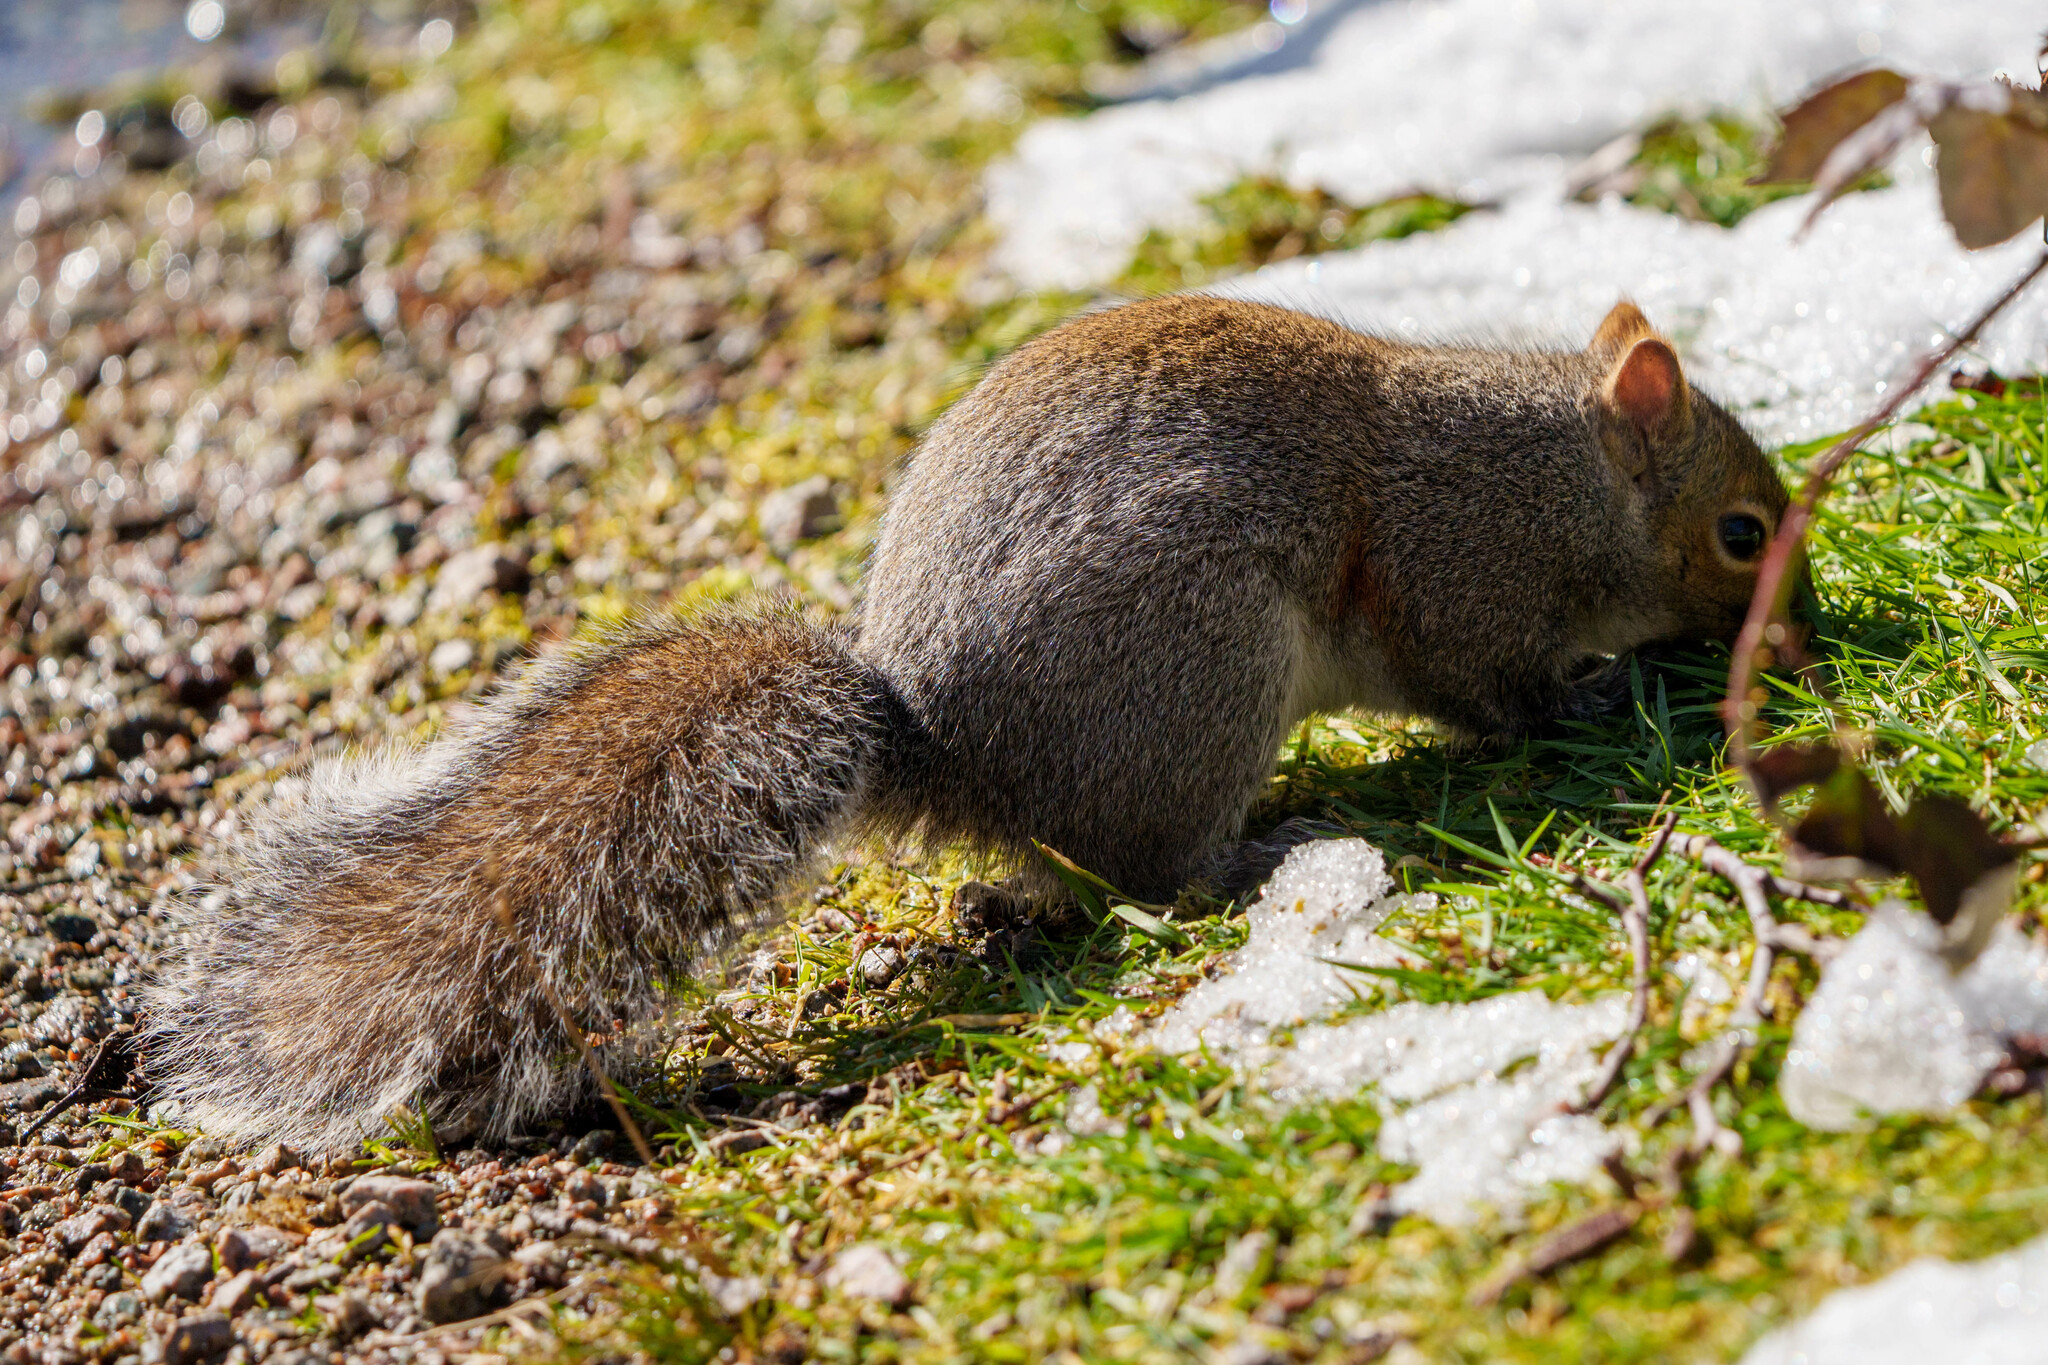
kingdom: Animalia
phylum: Chordata
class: Mammalia
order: Rodentia
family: Sciuridae
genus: Sciurus
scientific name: Sciurus carolinensis
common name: Eastern gray squirrel
